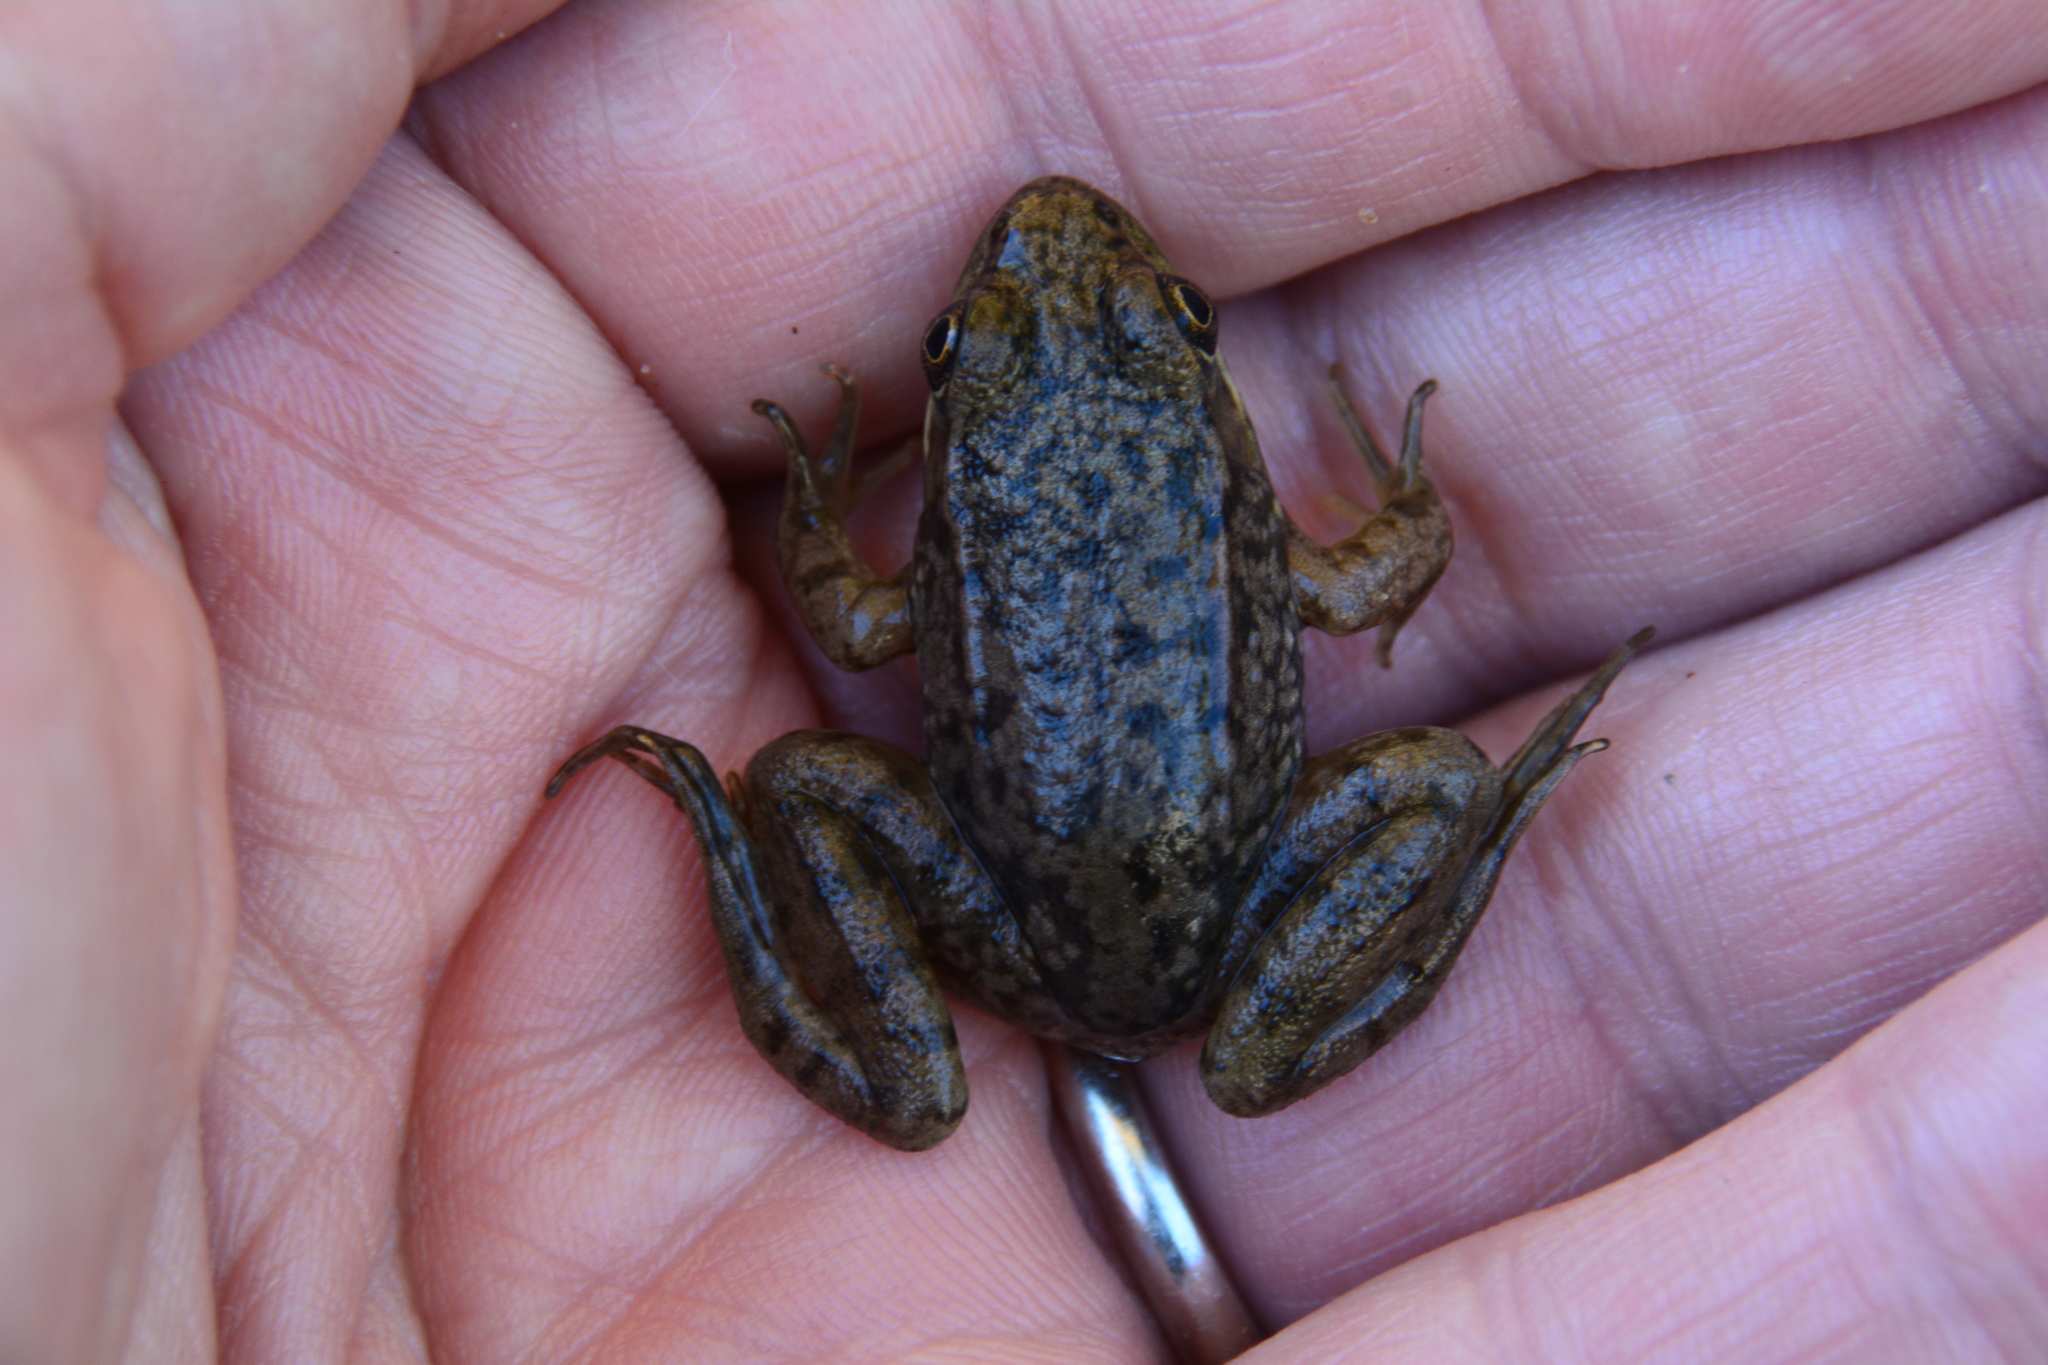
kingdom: Animalia
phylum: Chordata
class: Amphibia
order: Anura
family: Ranidae
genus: Lithobates
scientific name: Lithobates clamitans
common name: Green frog
